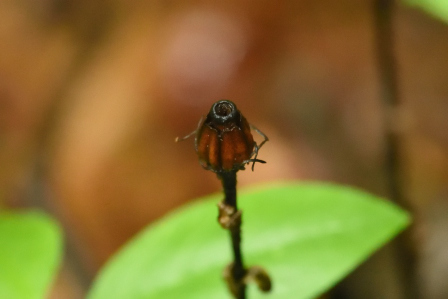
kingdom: Plantae
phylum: Tracheophyta
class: Magnoliopsida
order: Ericales
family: Ericaceae
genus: Monotropa
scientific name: Monotropa uniflora
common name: Convulsion root
